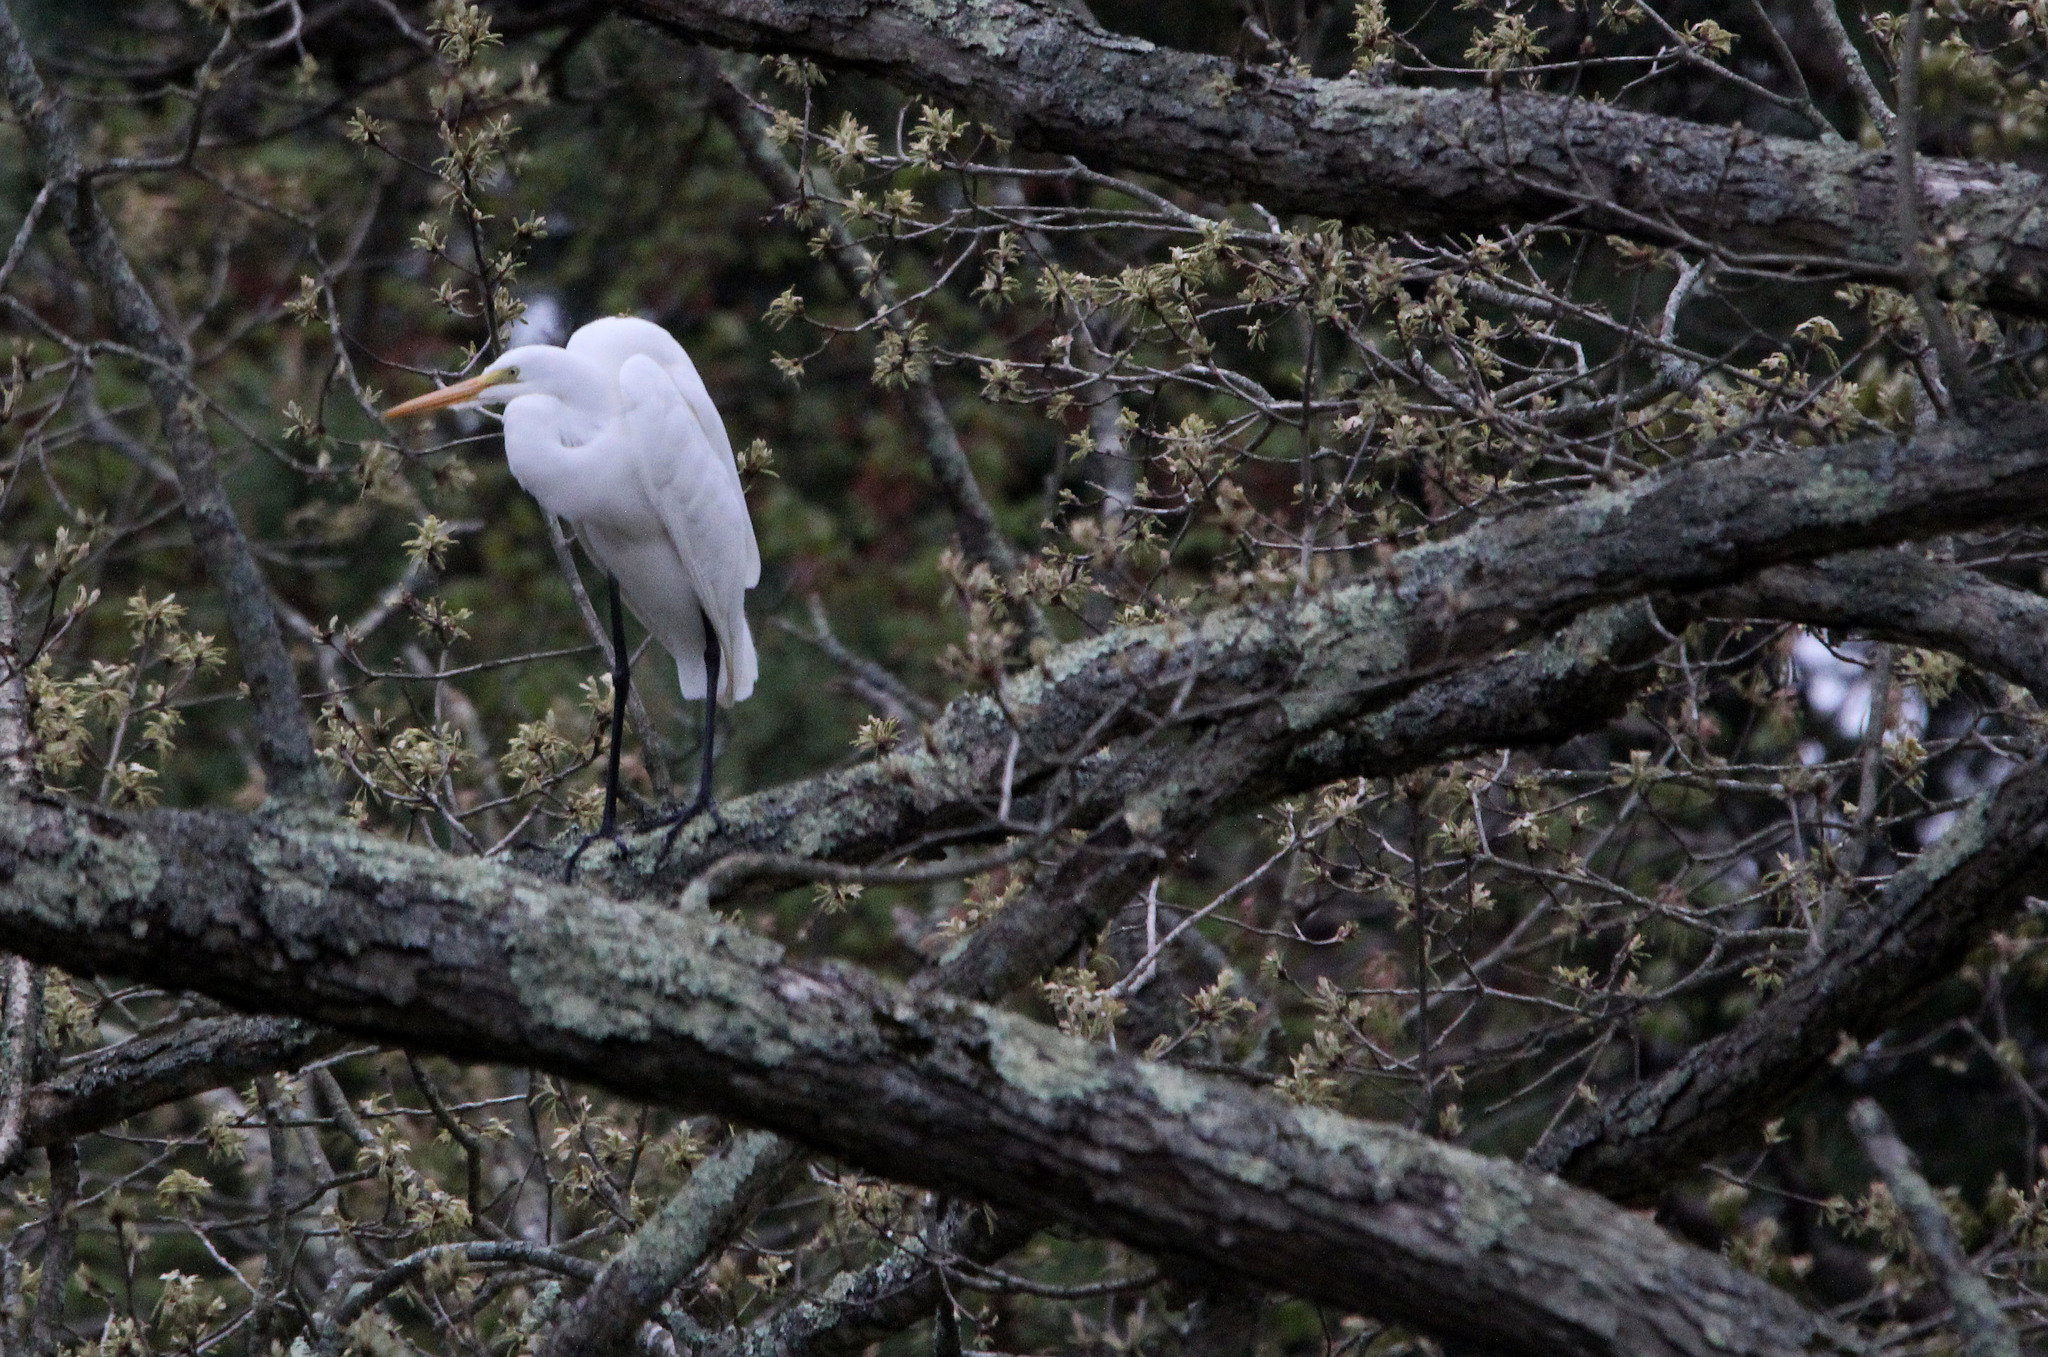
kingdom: Animalia
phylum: Chordata
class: Aves
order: Pelecaniformes
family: Ardeidae
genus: Ardea
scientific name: Ardea alba
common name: Great egret
